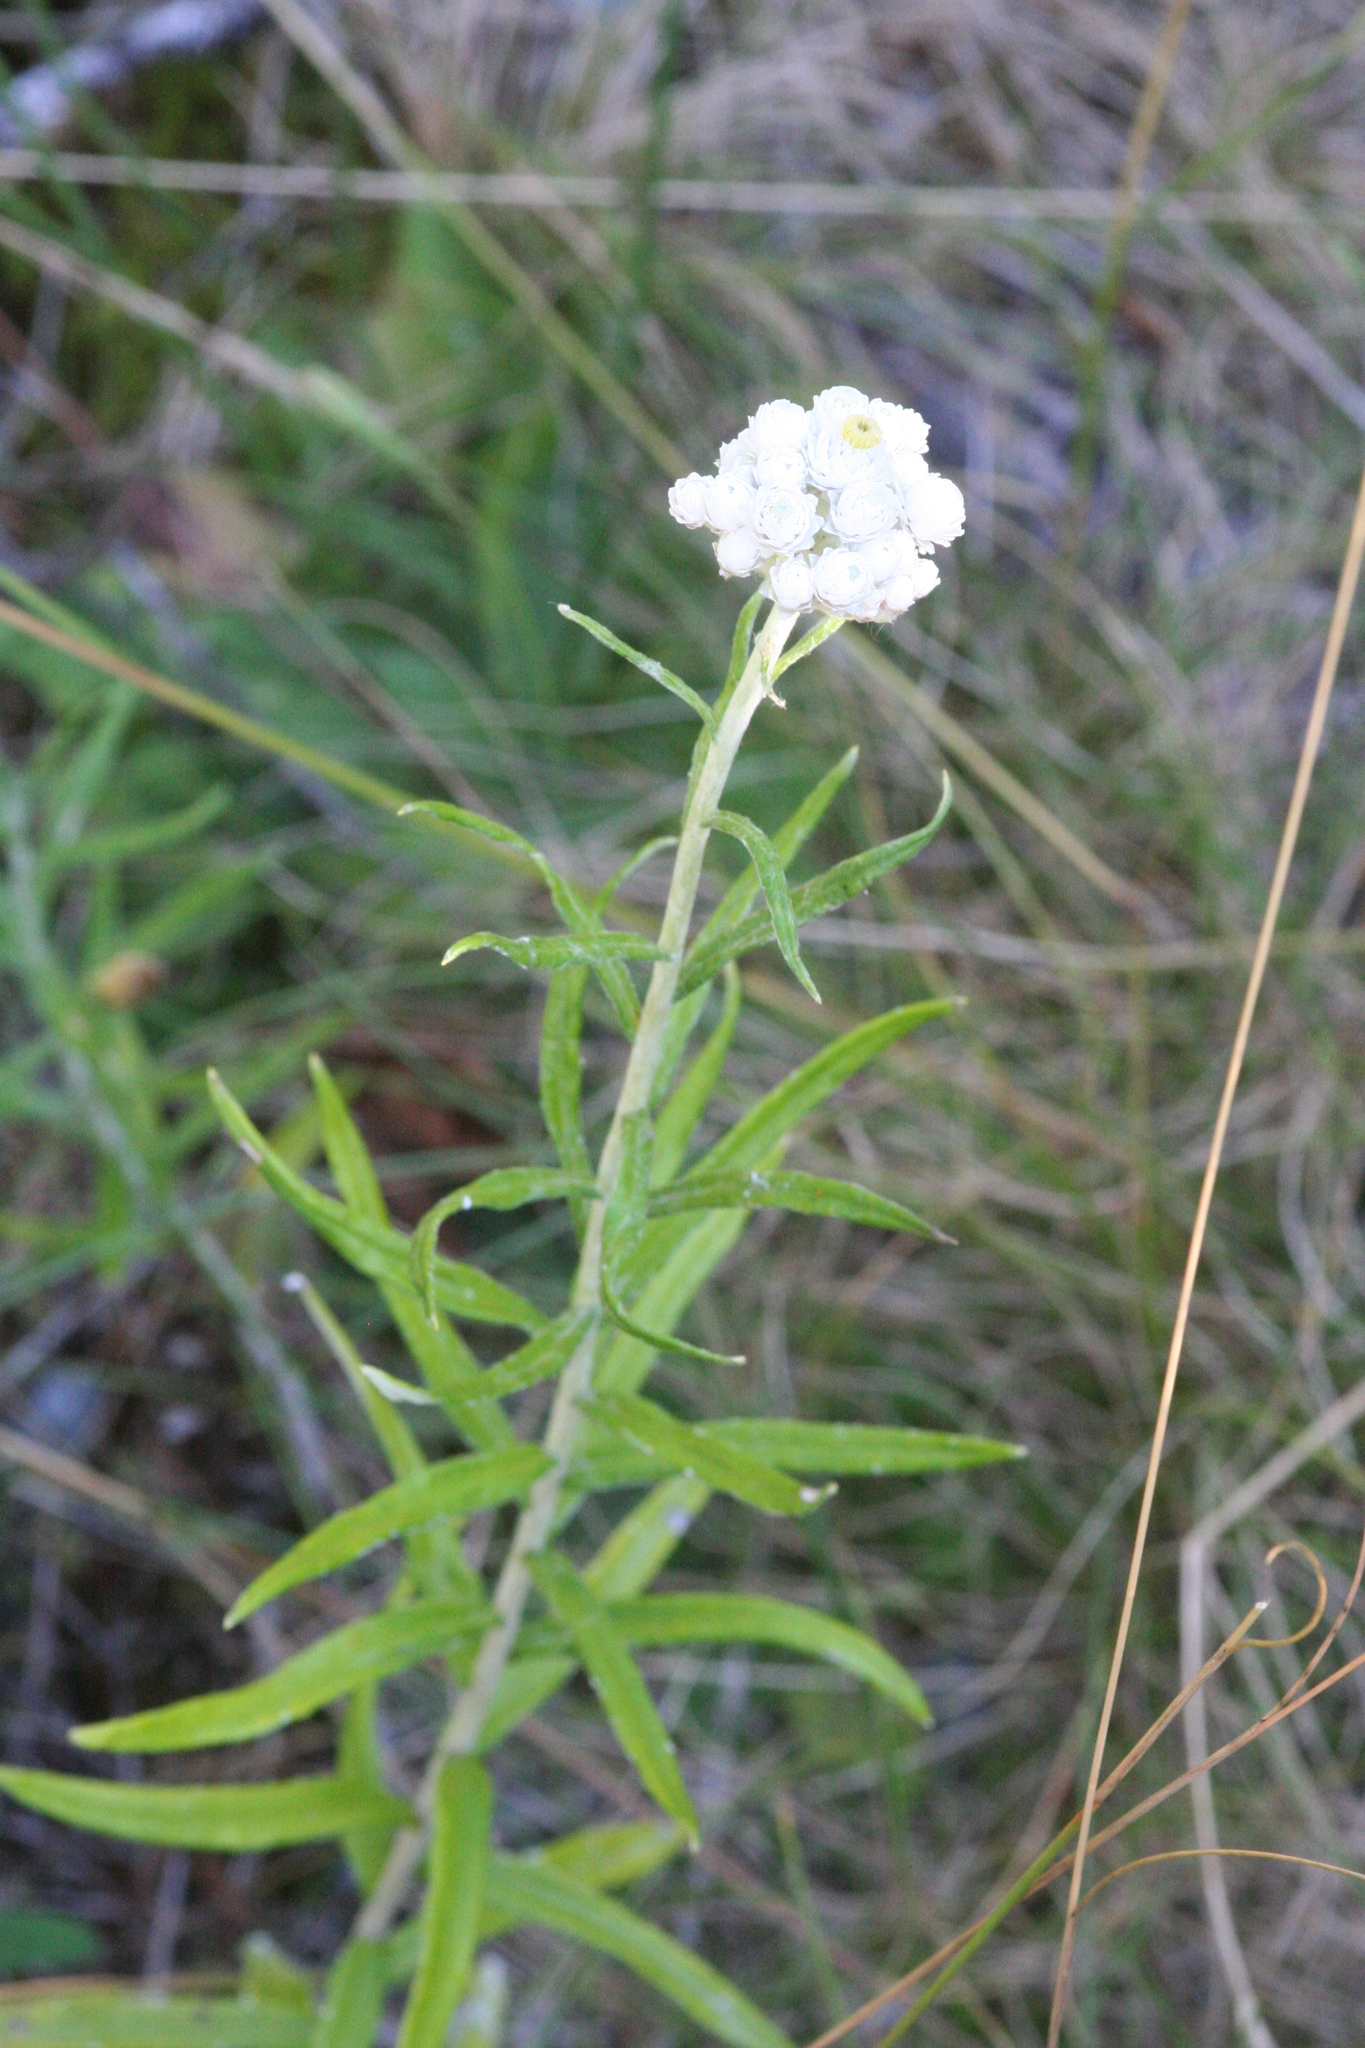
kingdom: Plantae
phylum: Tracheophyta
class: Magnoliopsida
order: Asterales
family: Asteraceae
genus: Anaphalis
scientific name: Anaphalis margaritacea
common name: Pearly everlasting
